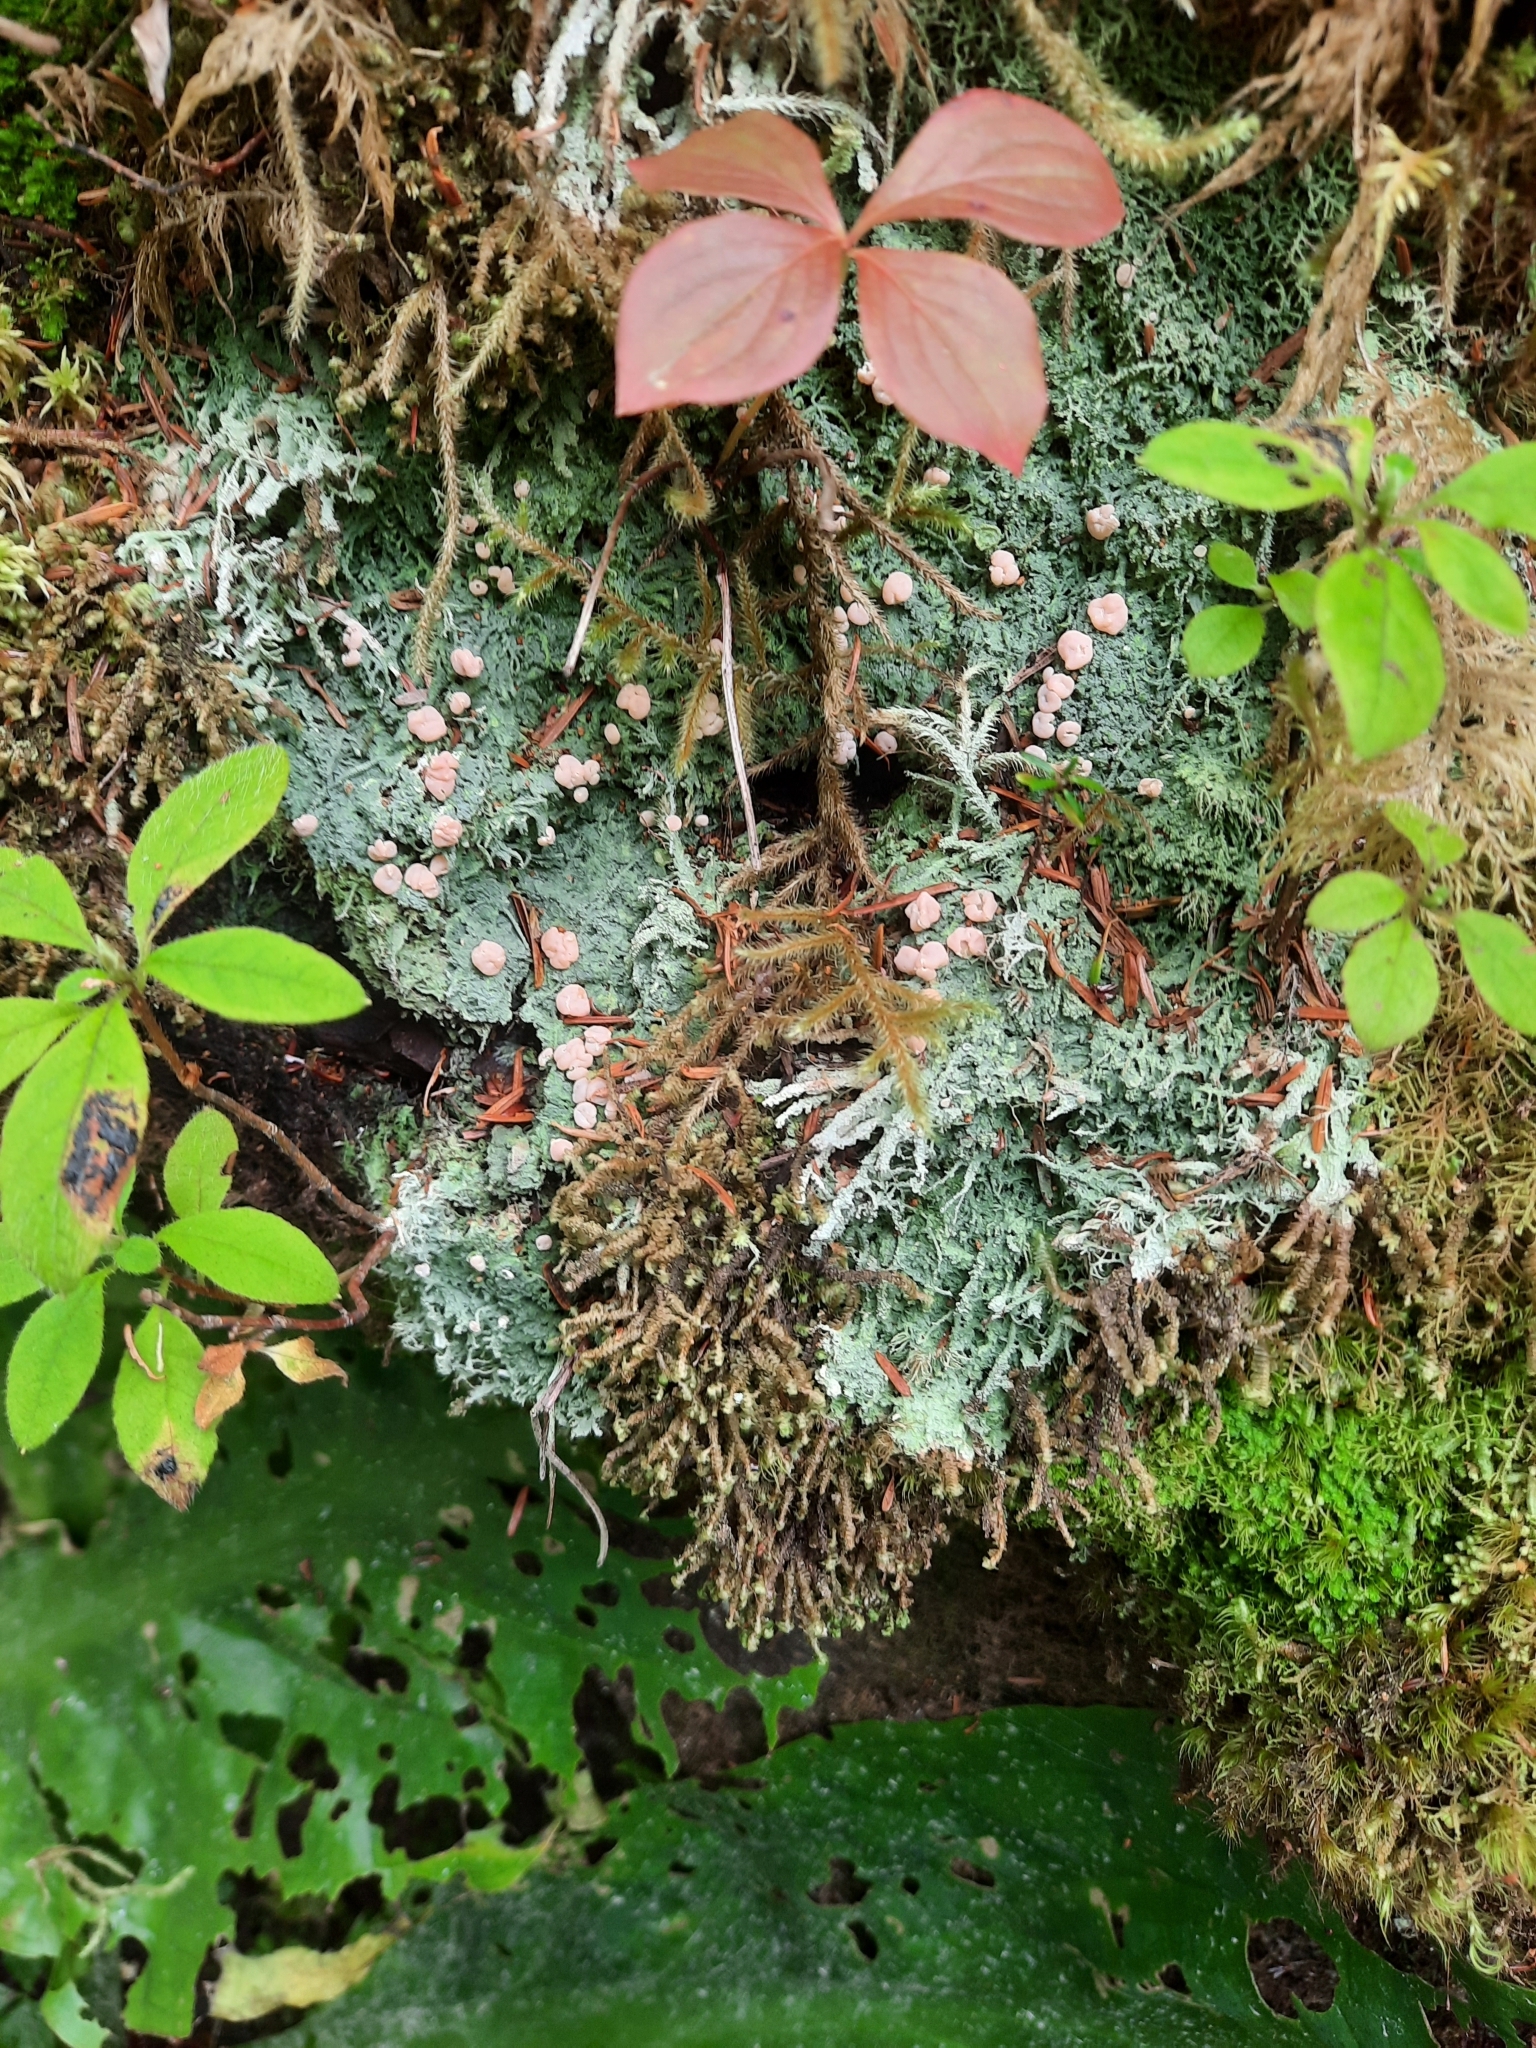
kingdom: Fungi
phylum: Ascomycota
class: Lecanoromycetes
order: Pertusariales
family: Icmadophilaceae
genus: Icmadophila
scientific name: Icmadophila ericetorum
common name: Candy lichen
